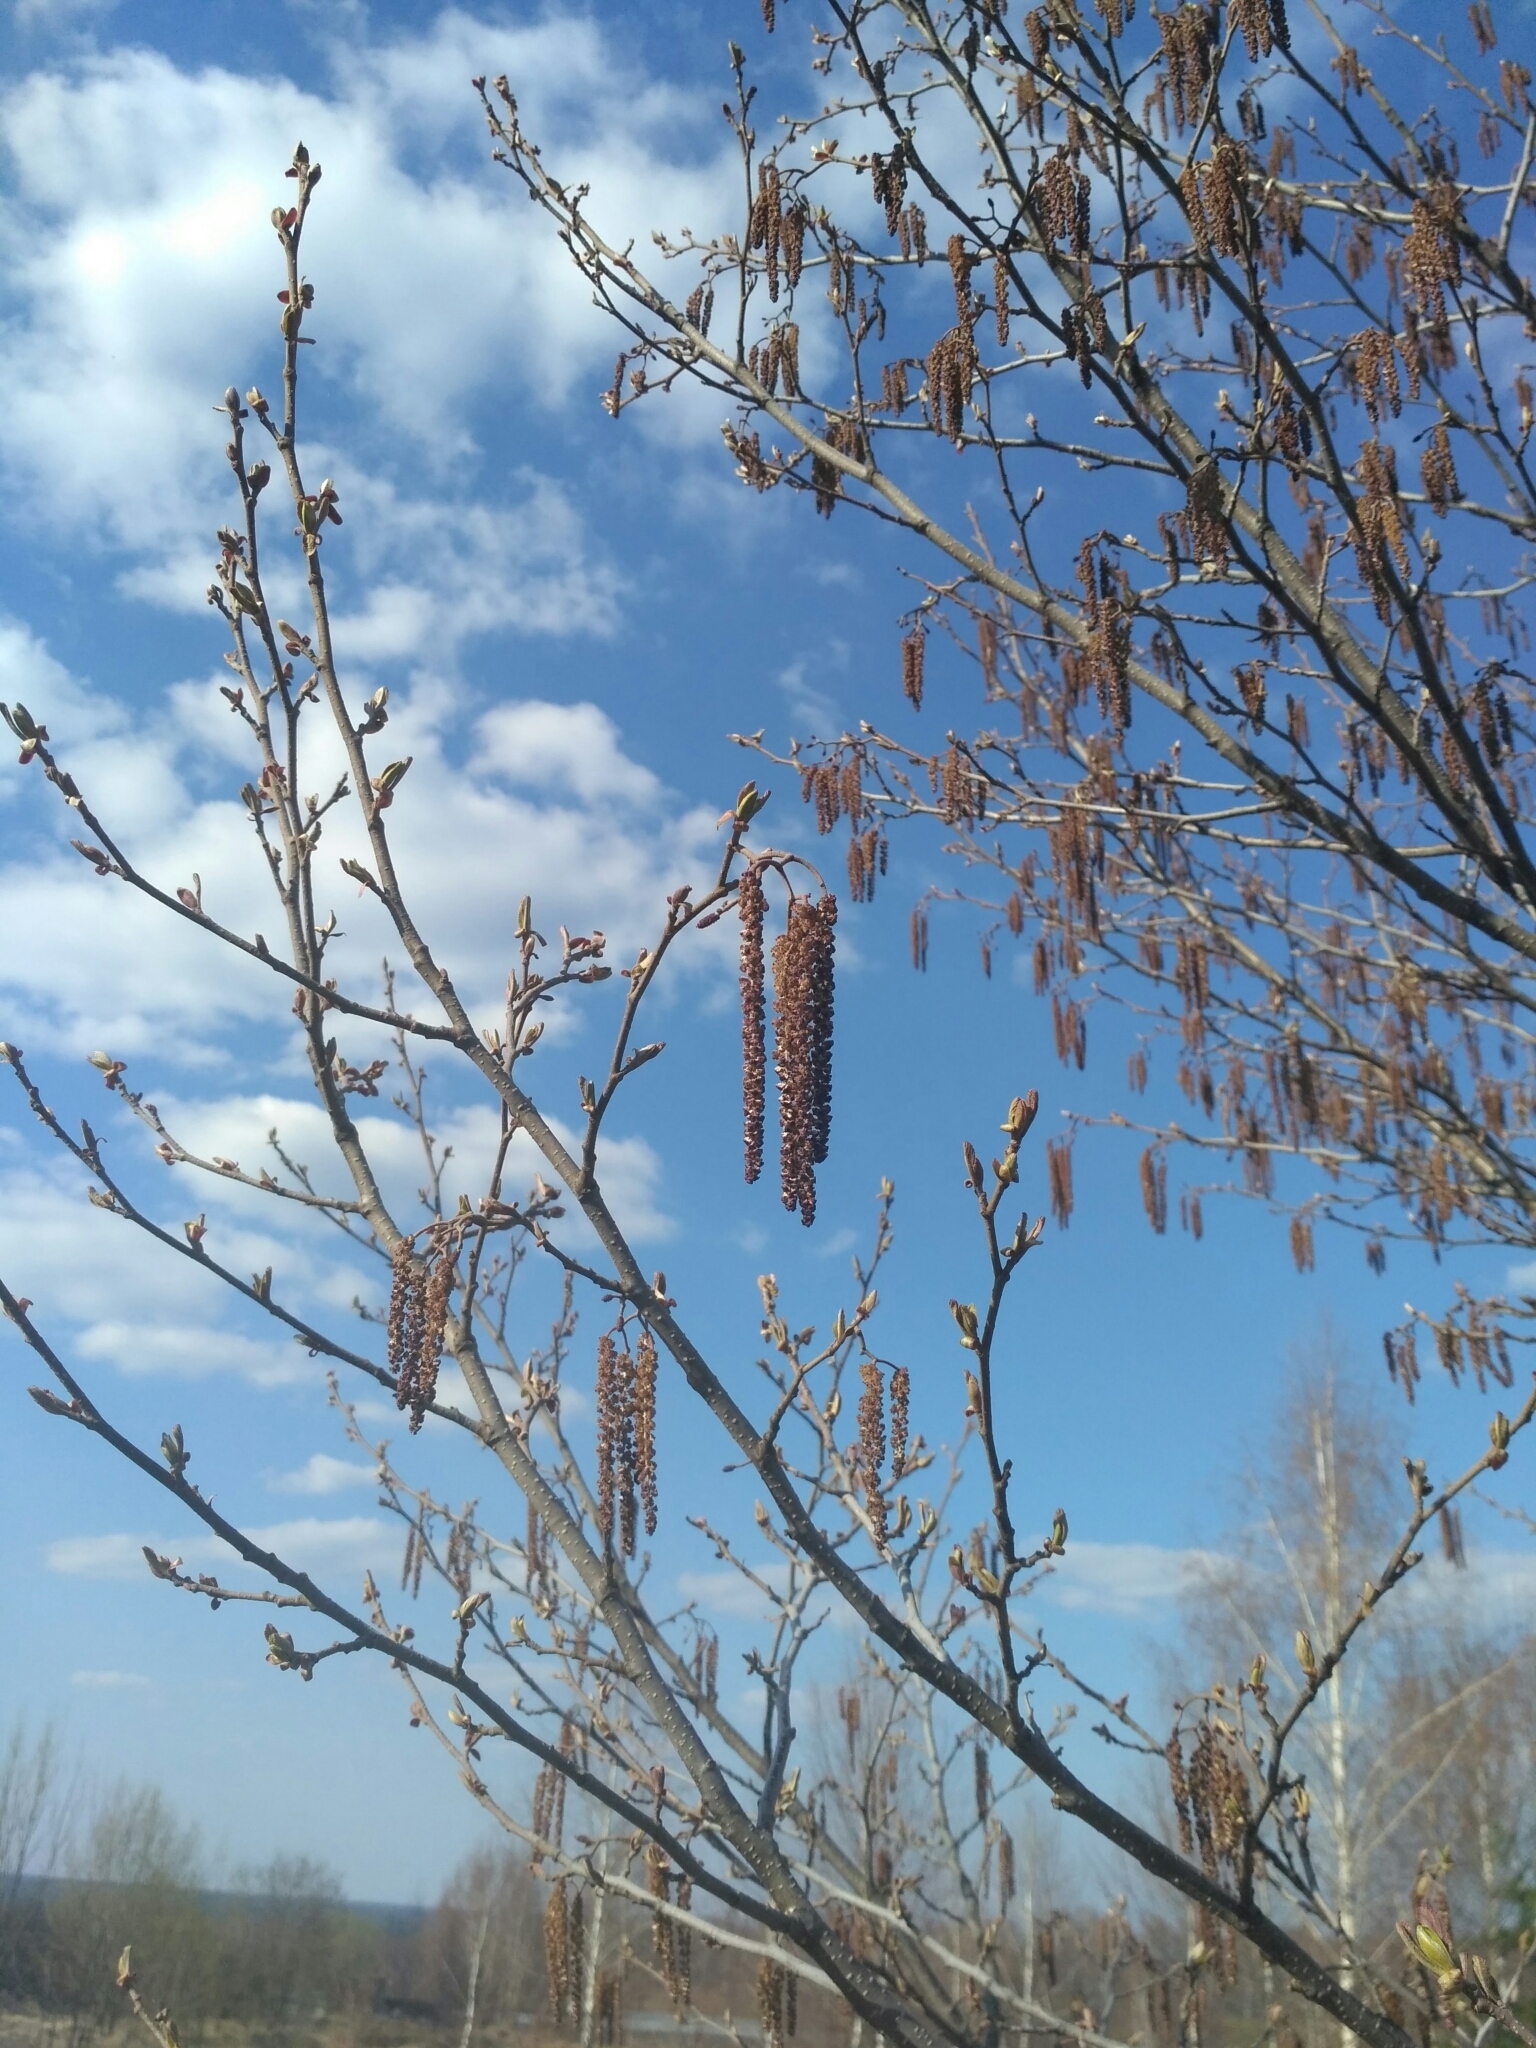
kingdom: Plantae
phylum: Tracheophyta
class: Magnoliopsida
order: Fagales
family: Betulaceae
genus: Alnus
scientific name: Alnus glutinosa
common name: Black alder
